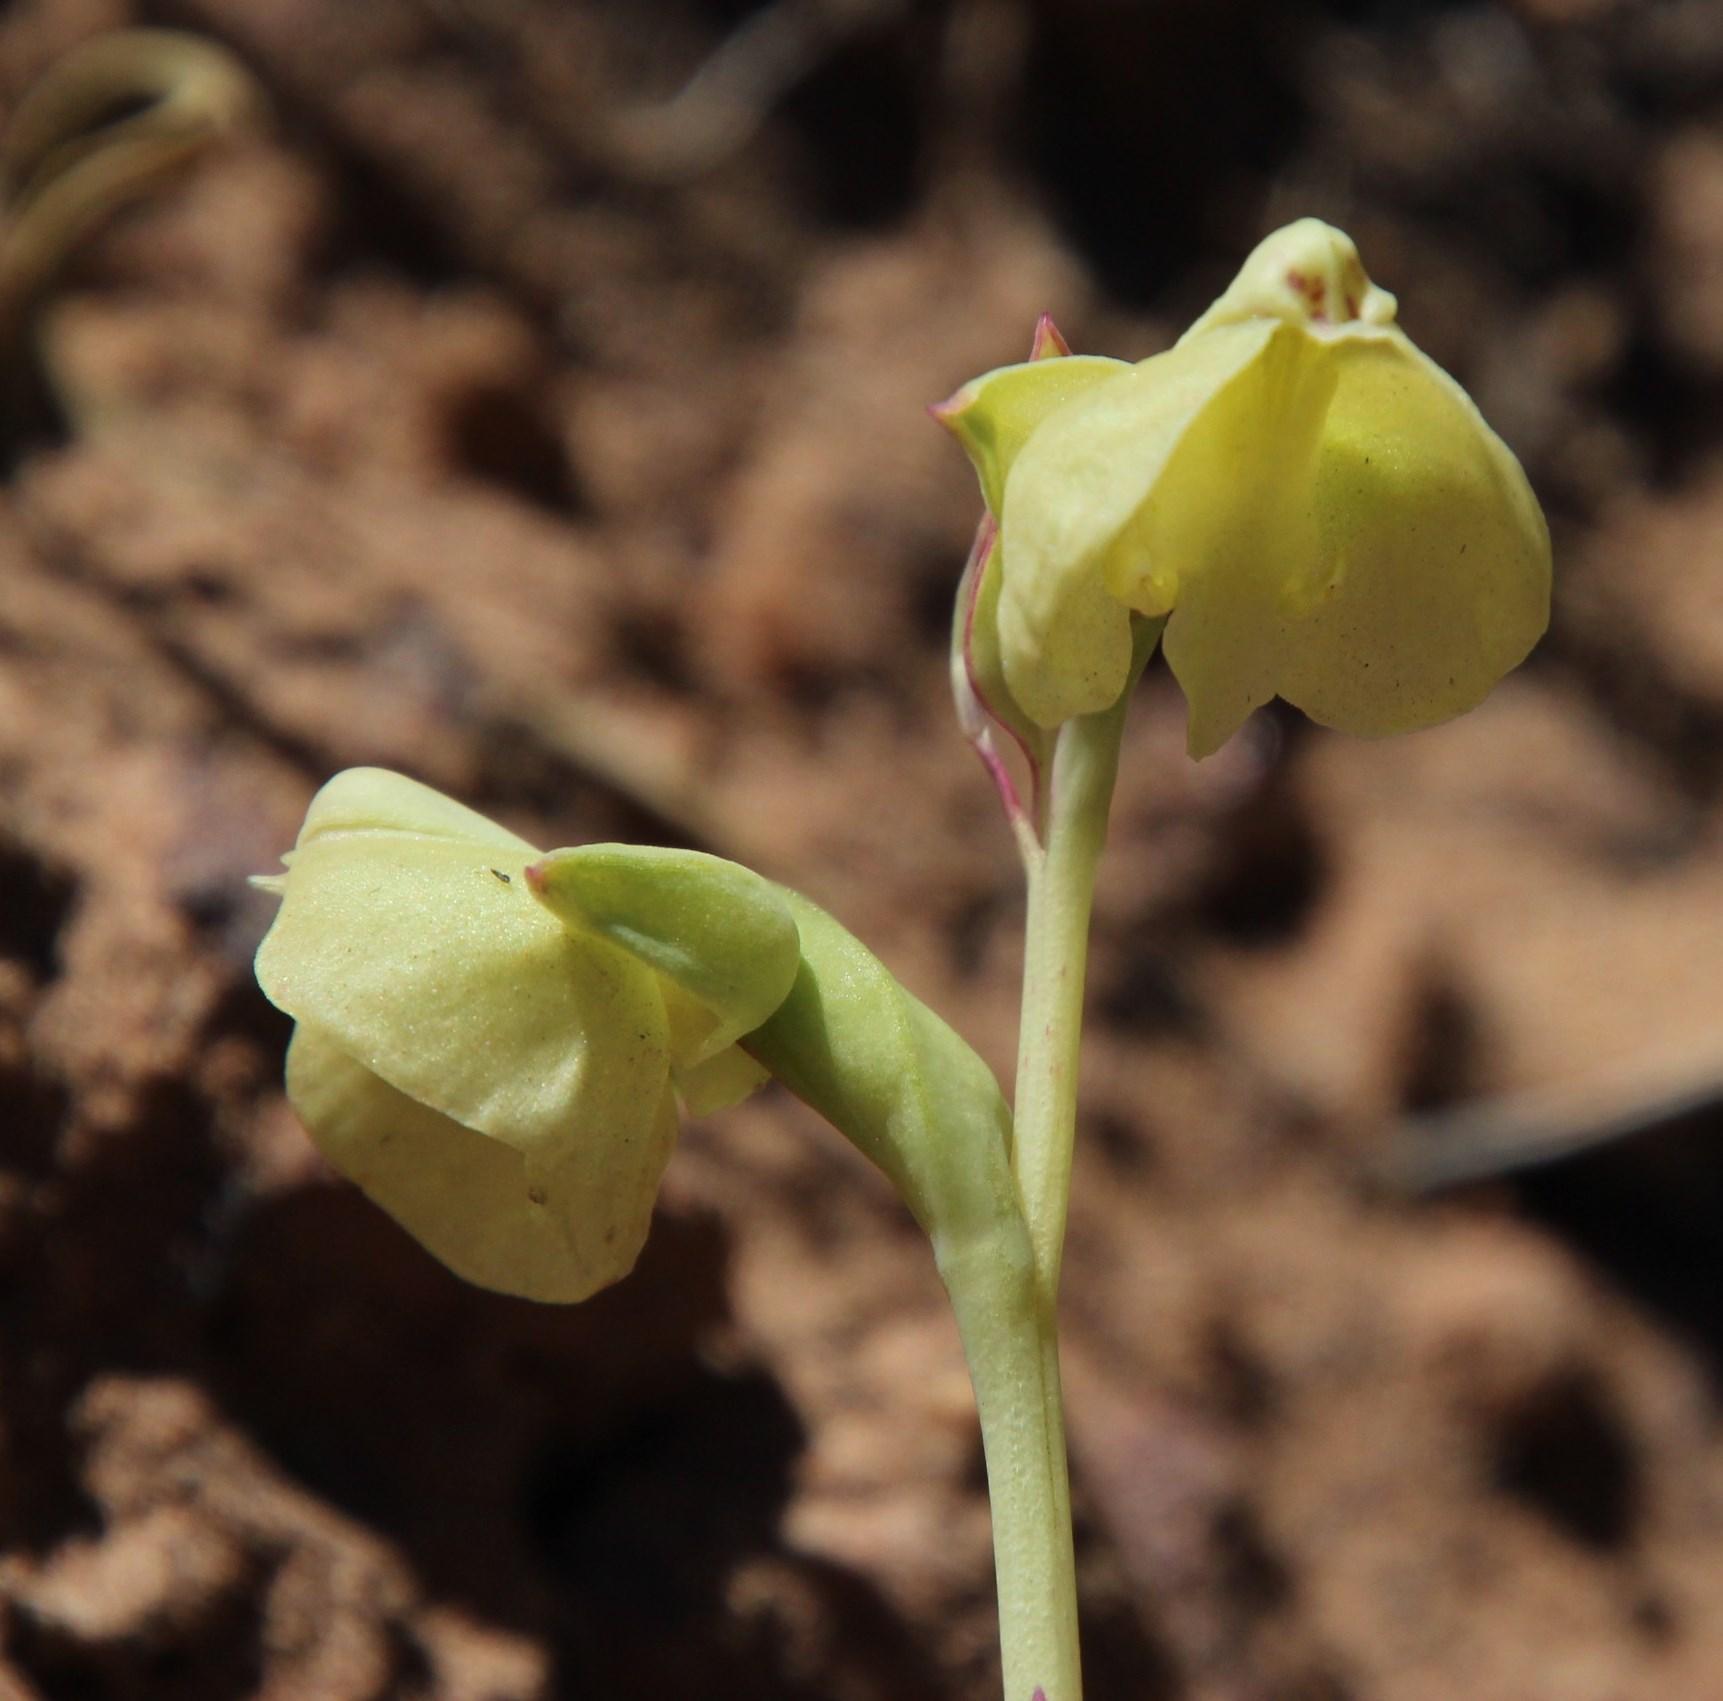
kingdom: Plantae
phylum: Tracheophyta
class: Liliopsida
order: Asparagales
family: Orchidaceae
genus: Pterygodium
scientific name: Pterygodium catholicum
